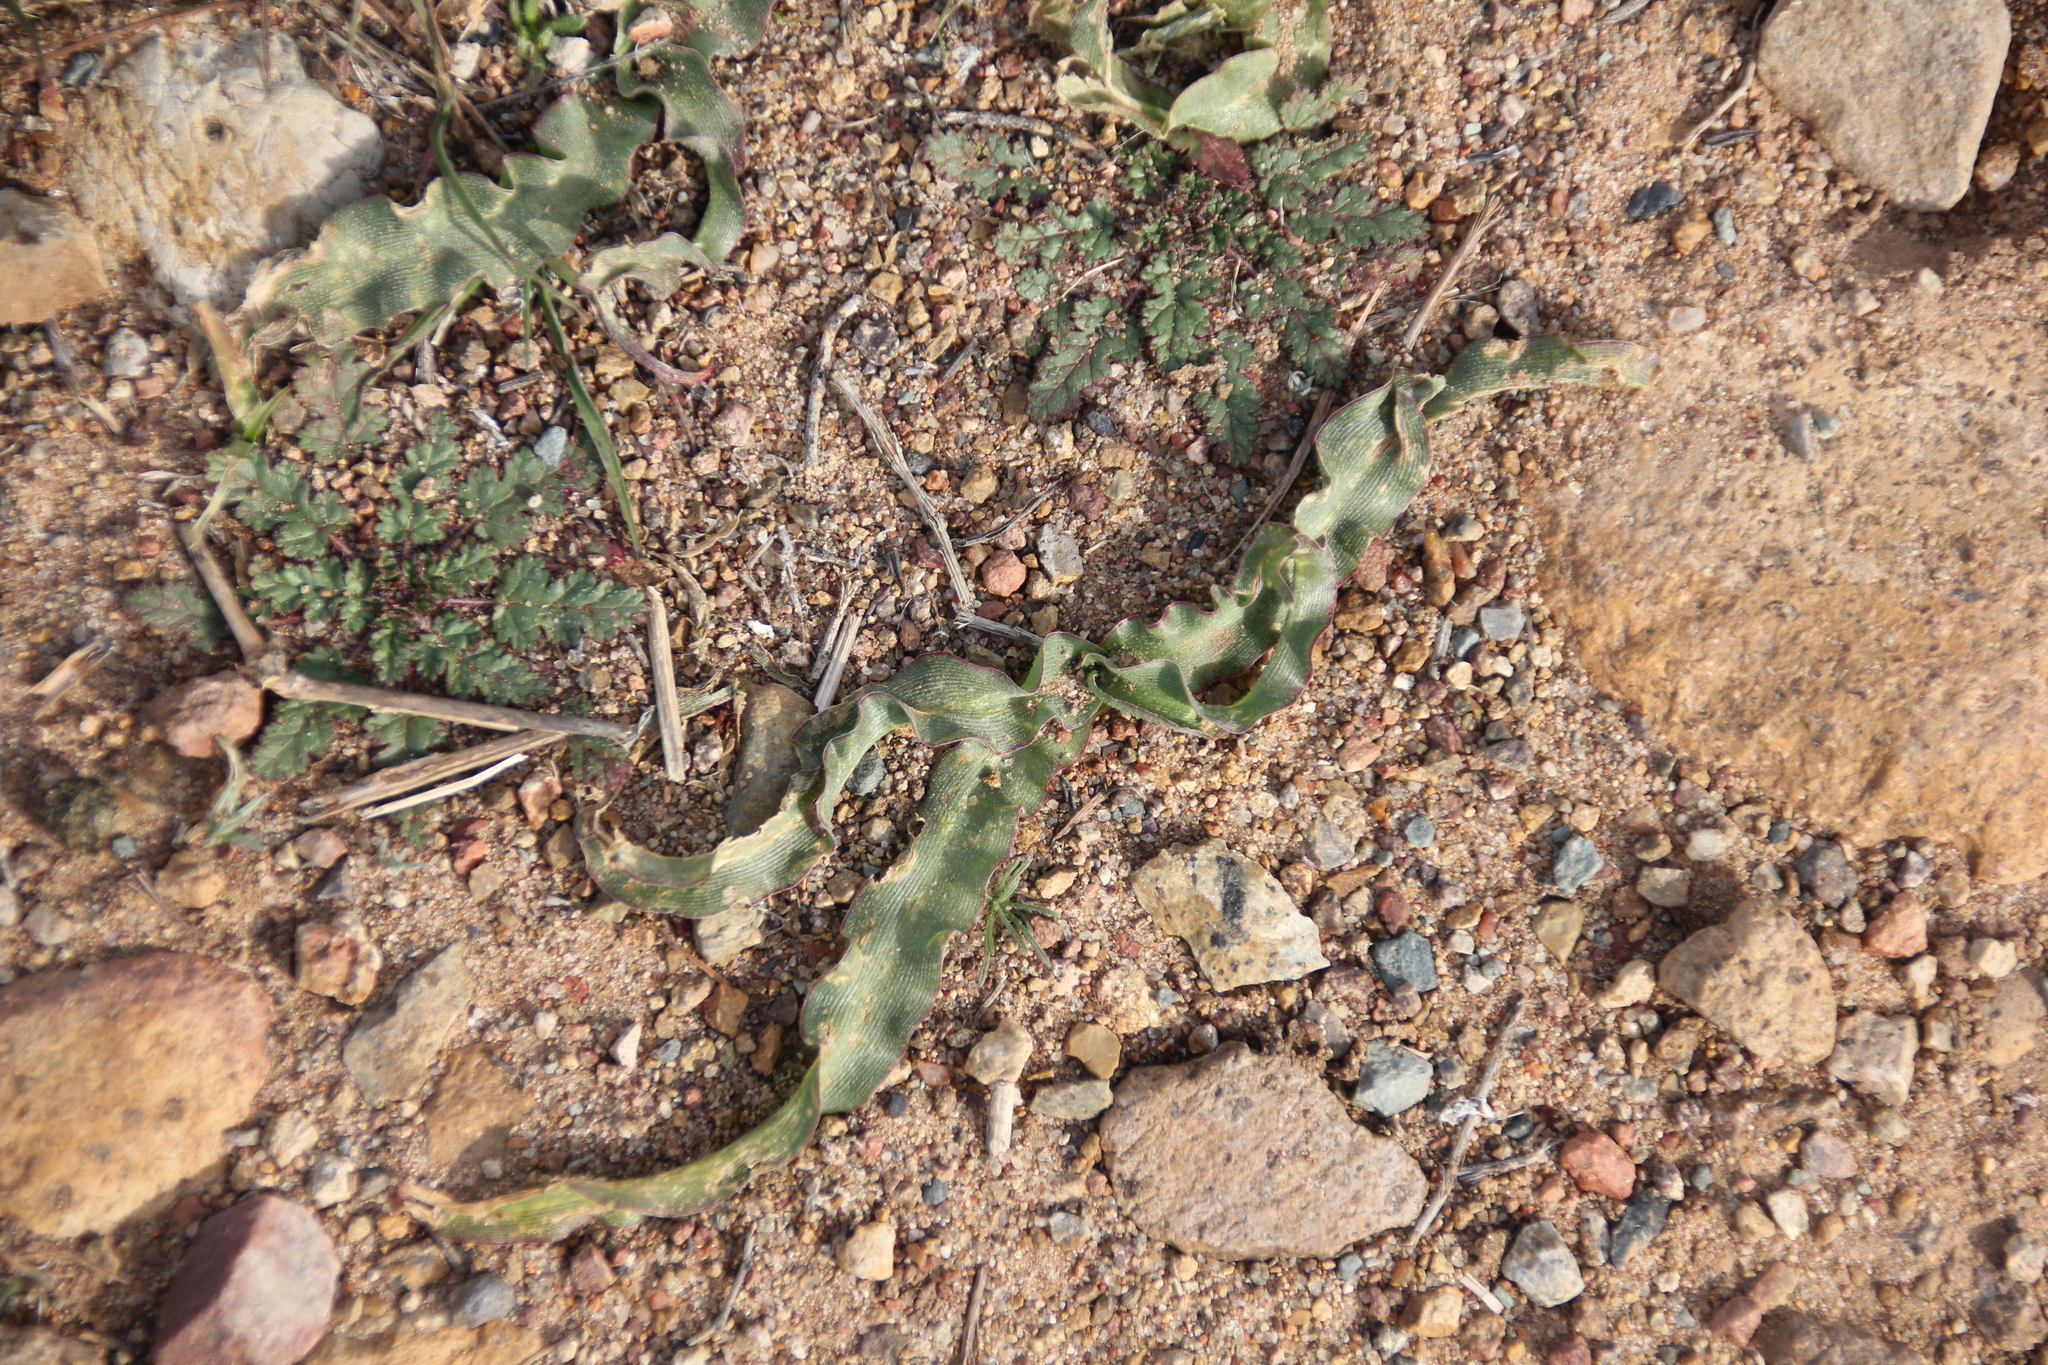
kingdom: Plantae
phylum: Tracheophyta
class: Liliopsida
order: Asparagales
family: Asparagaceae
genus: Hooveria
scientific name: Hooveria parviflora
